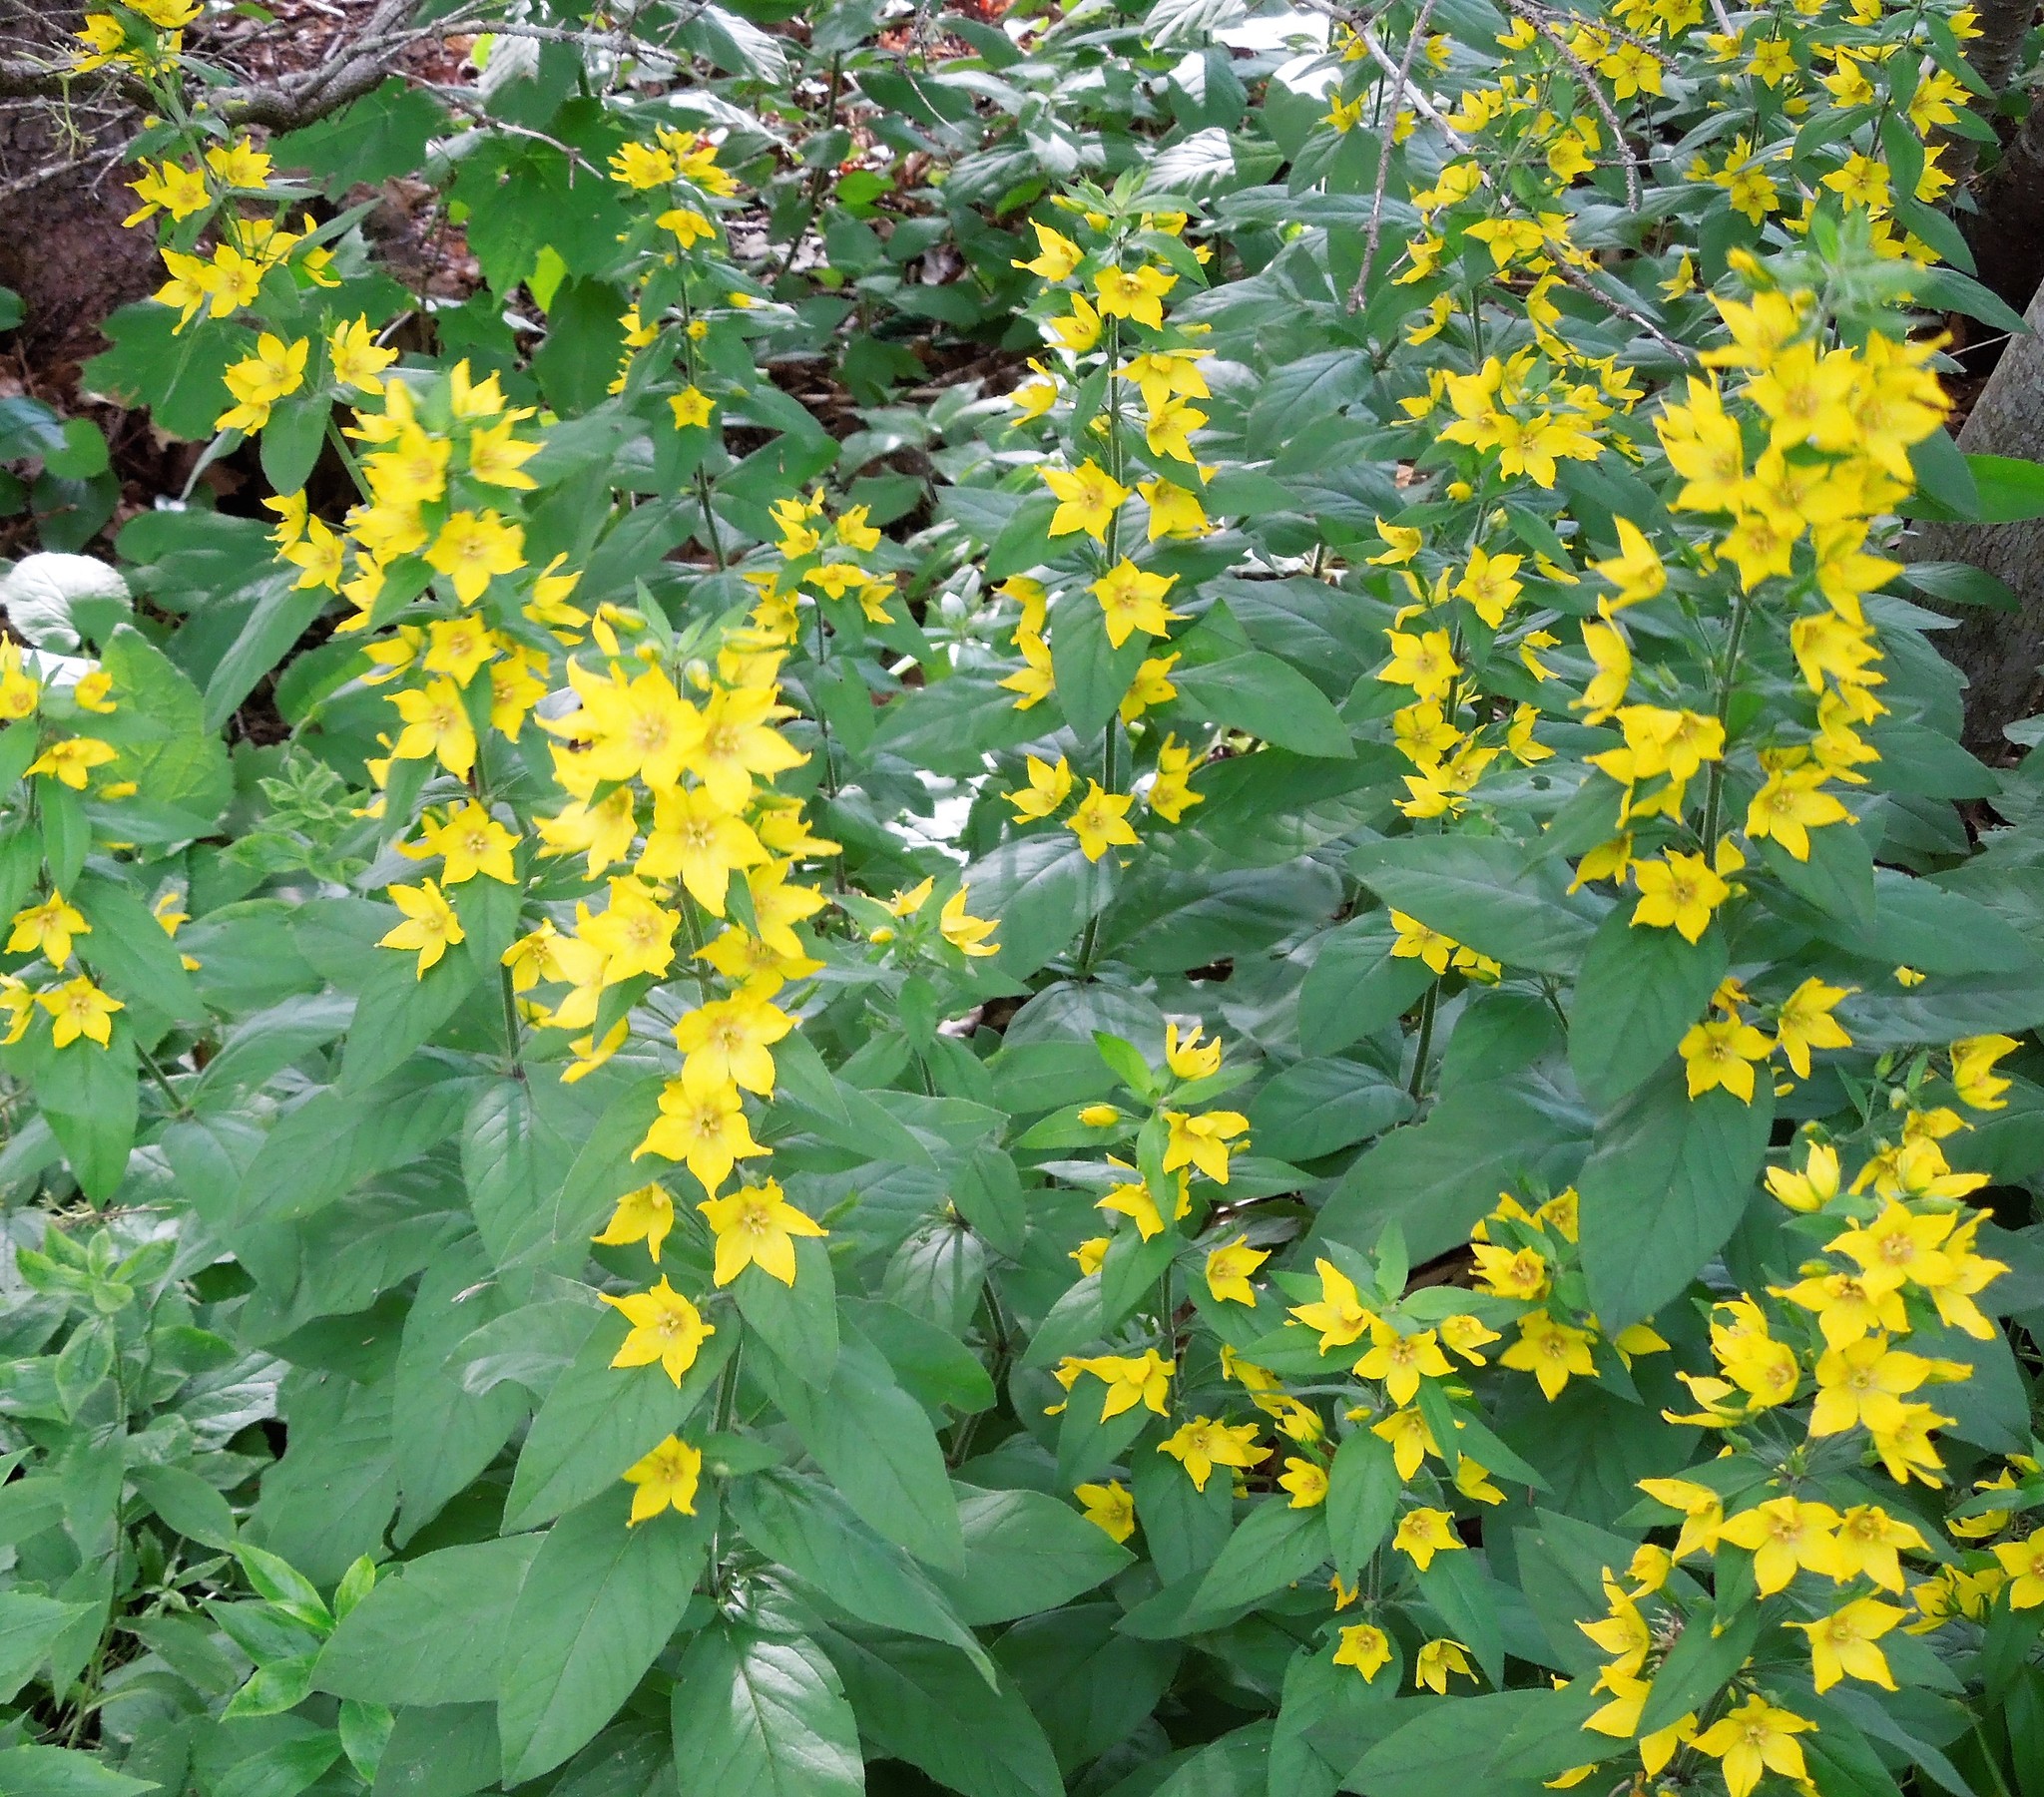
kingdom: Plantae
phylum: Tracheophyta
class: Magnoliopsida
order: Ericales
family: Primulaceae
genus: Lysimachia
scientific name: Lysimachia punctata
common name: Dotted loosestrife
